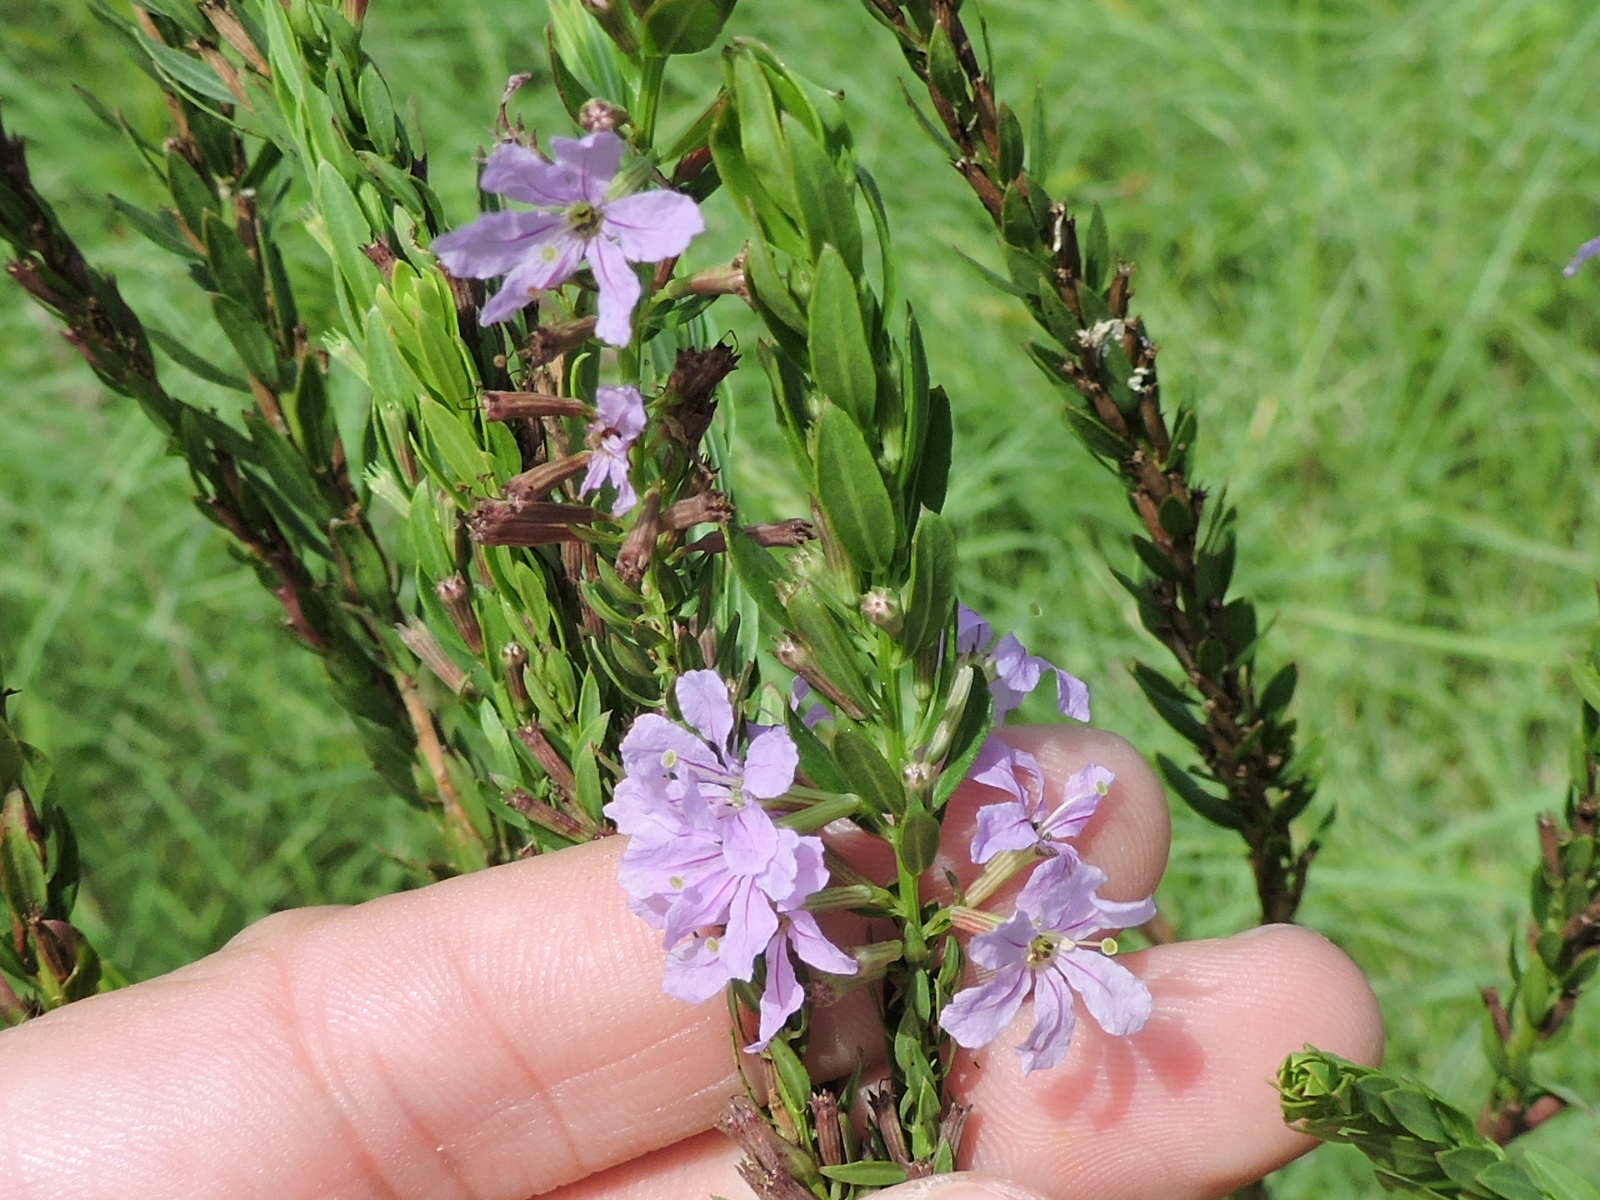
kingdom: Plantae
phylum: Tracheophyta
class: Magnoliopsida
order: Myrtales
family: Lythraceae
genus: Lythrum
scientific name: Lythrum alatum
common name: Winged loosestrife
